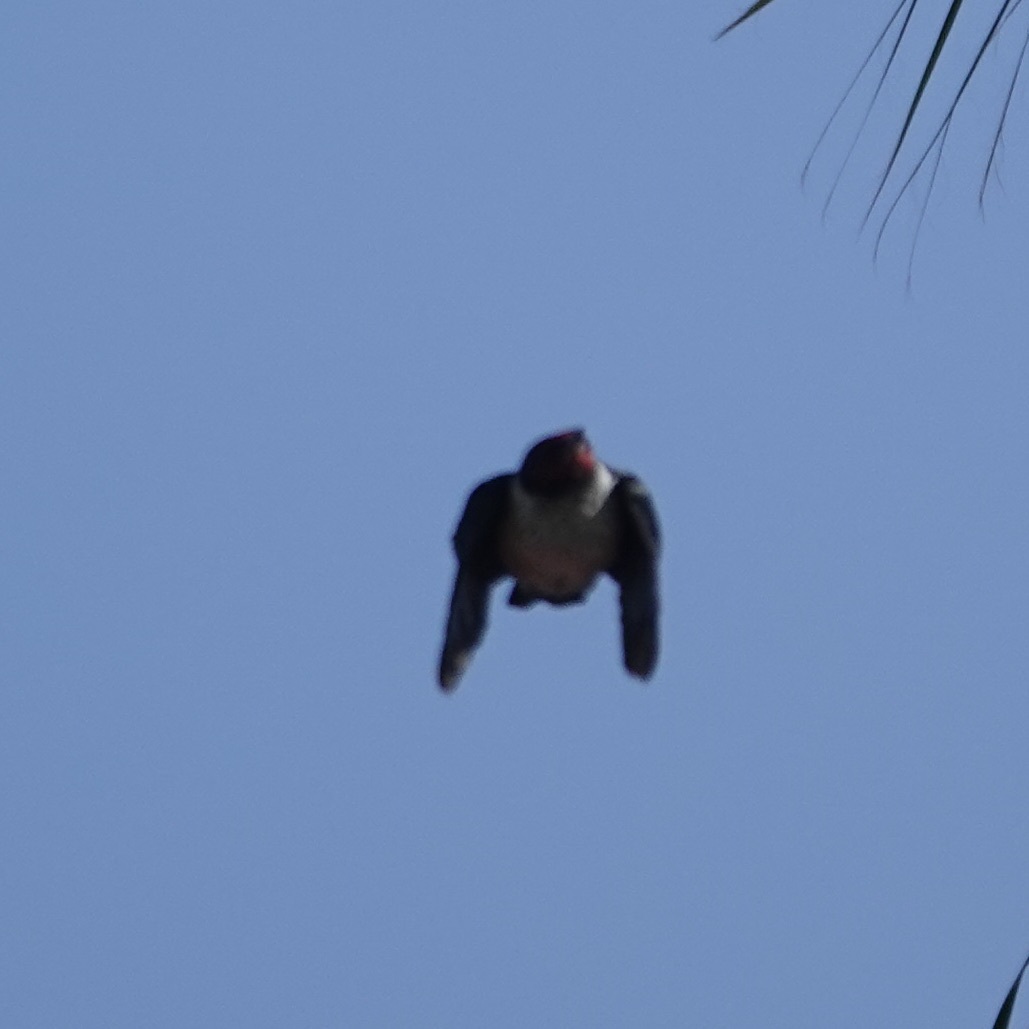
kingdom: Animalia
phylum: Chordata
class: Aves
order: Piciformes
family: Picidae
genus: Melanerpes
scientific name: Melanerpes lewis
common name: Lewis's woodpecker
